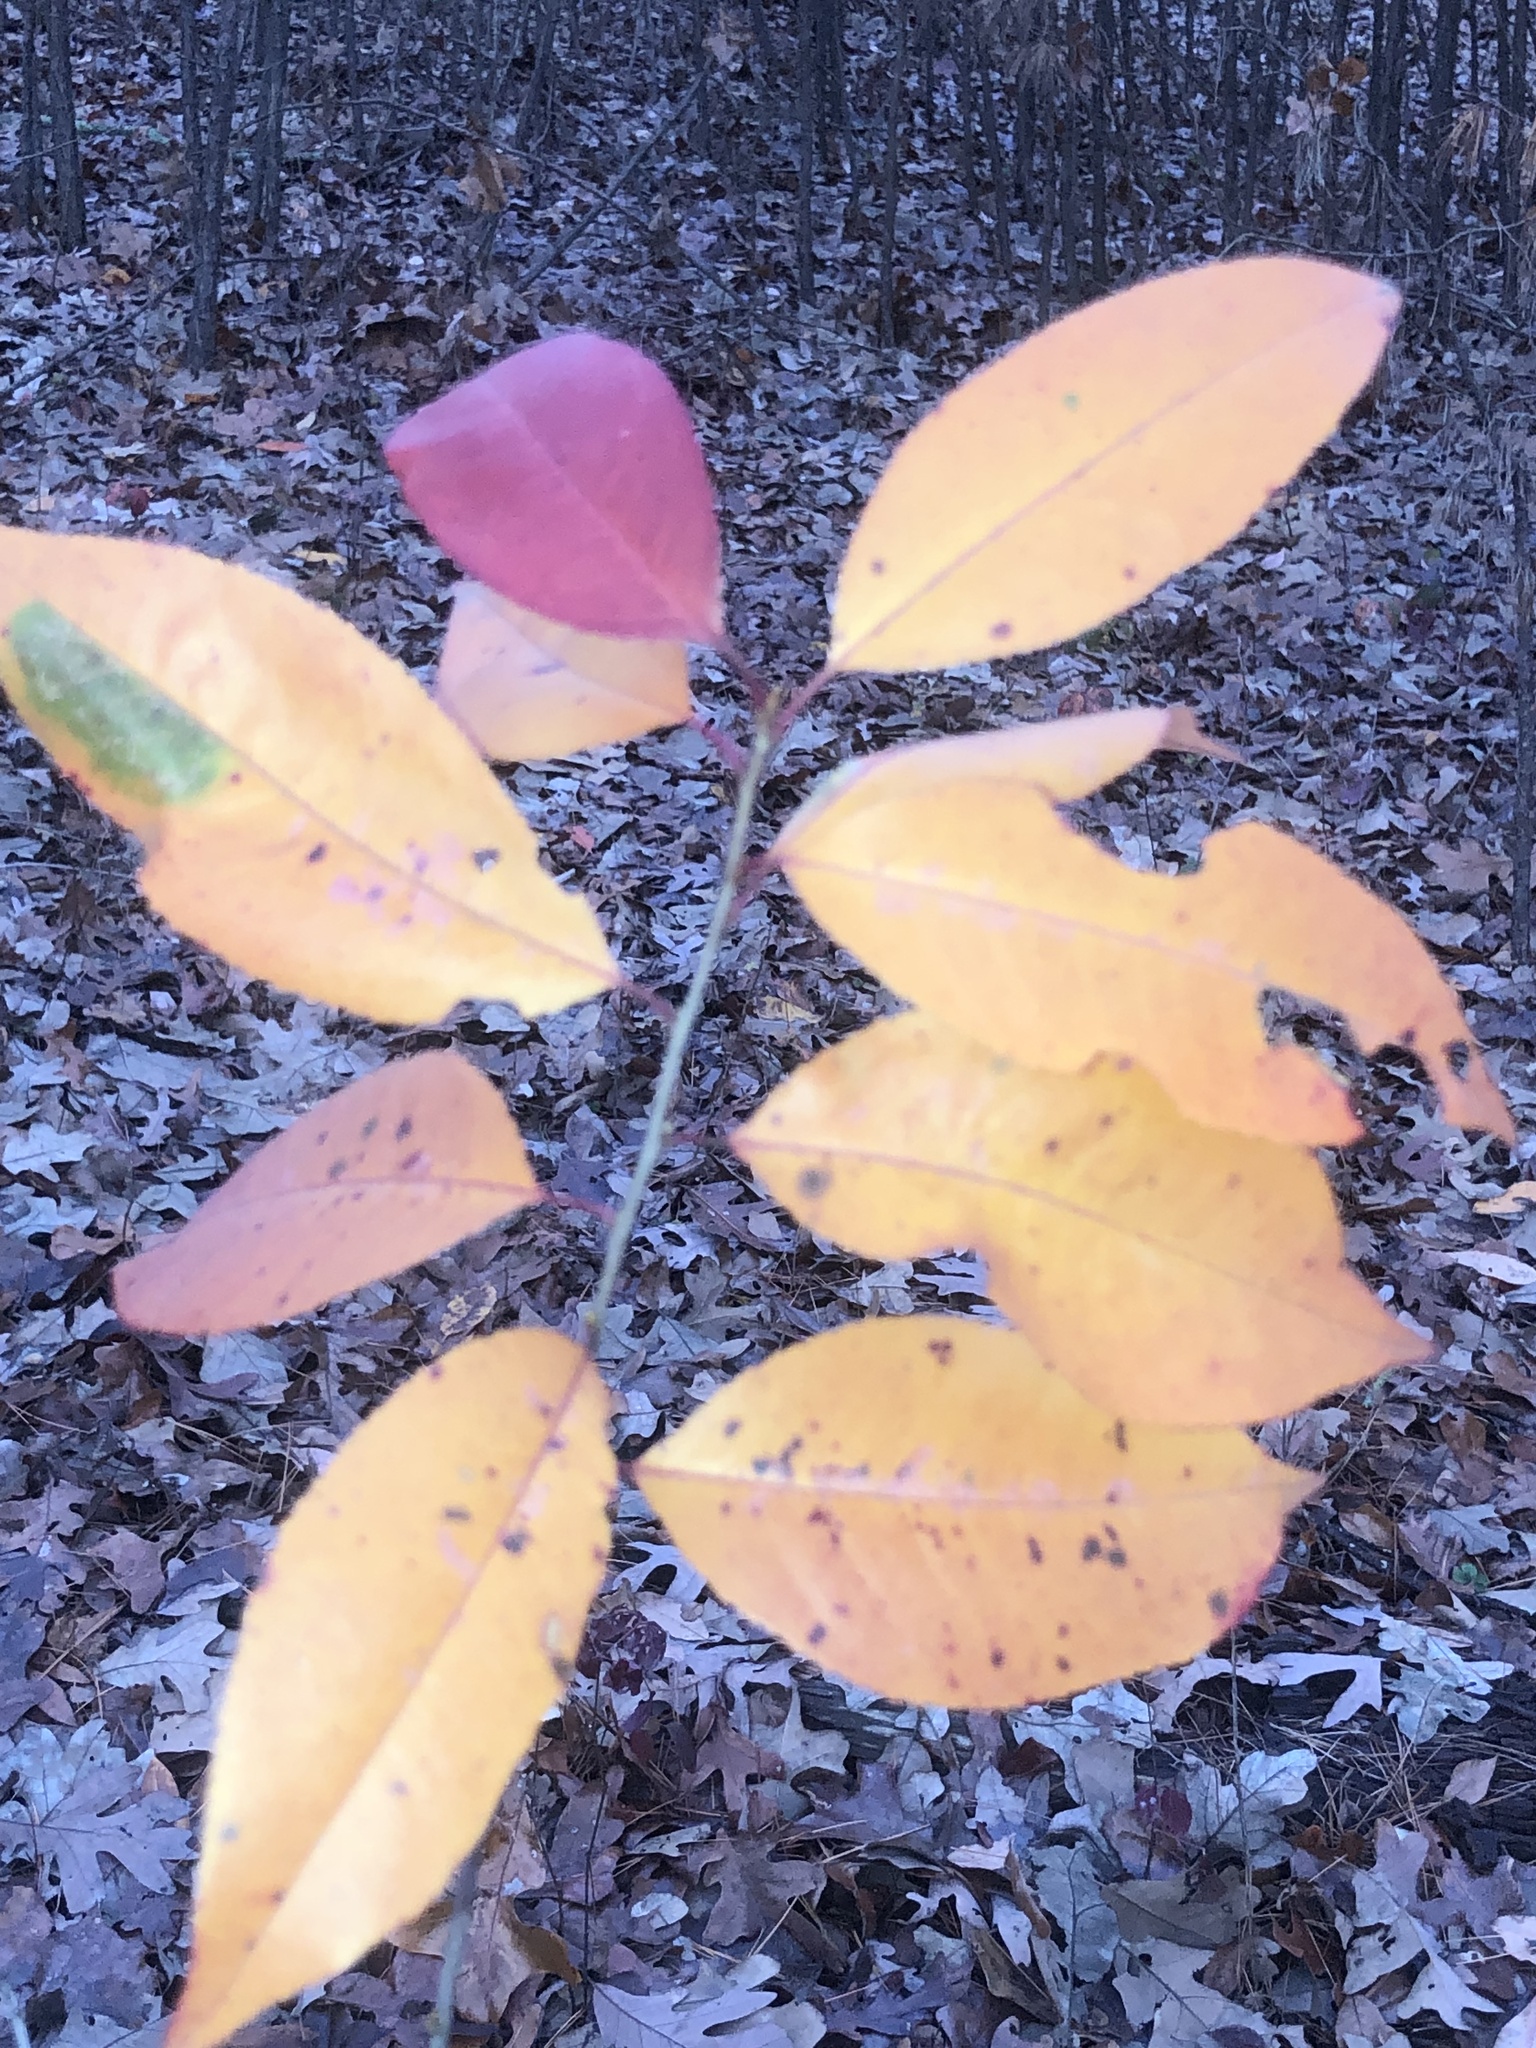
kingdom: Plantae
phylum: Tracheophyta
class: Magnoliopsida
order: Rosales
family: Rosaceae
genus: Prunus
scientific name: Prunus serotina
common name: Black cherry
